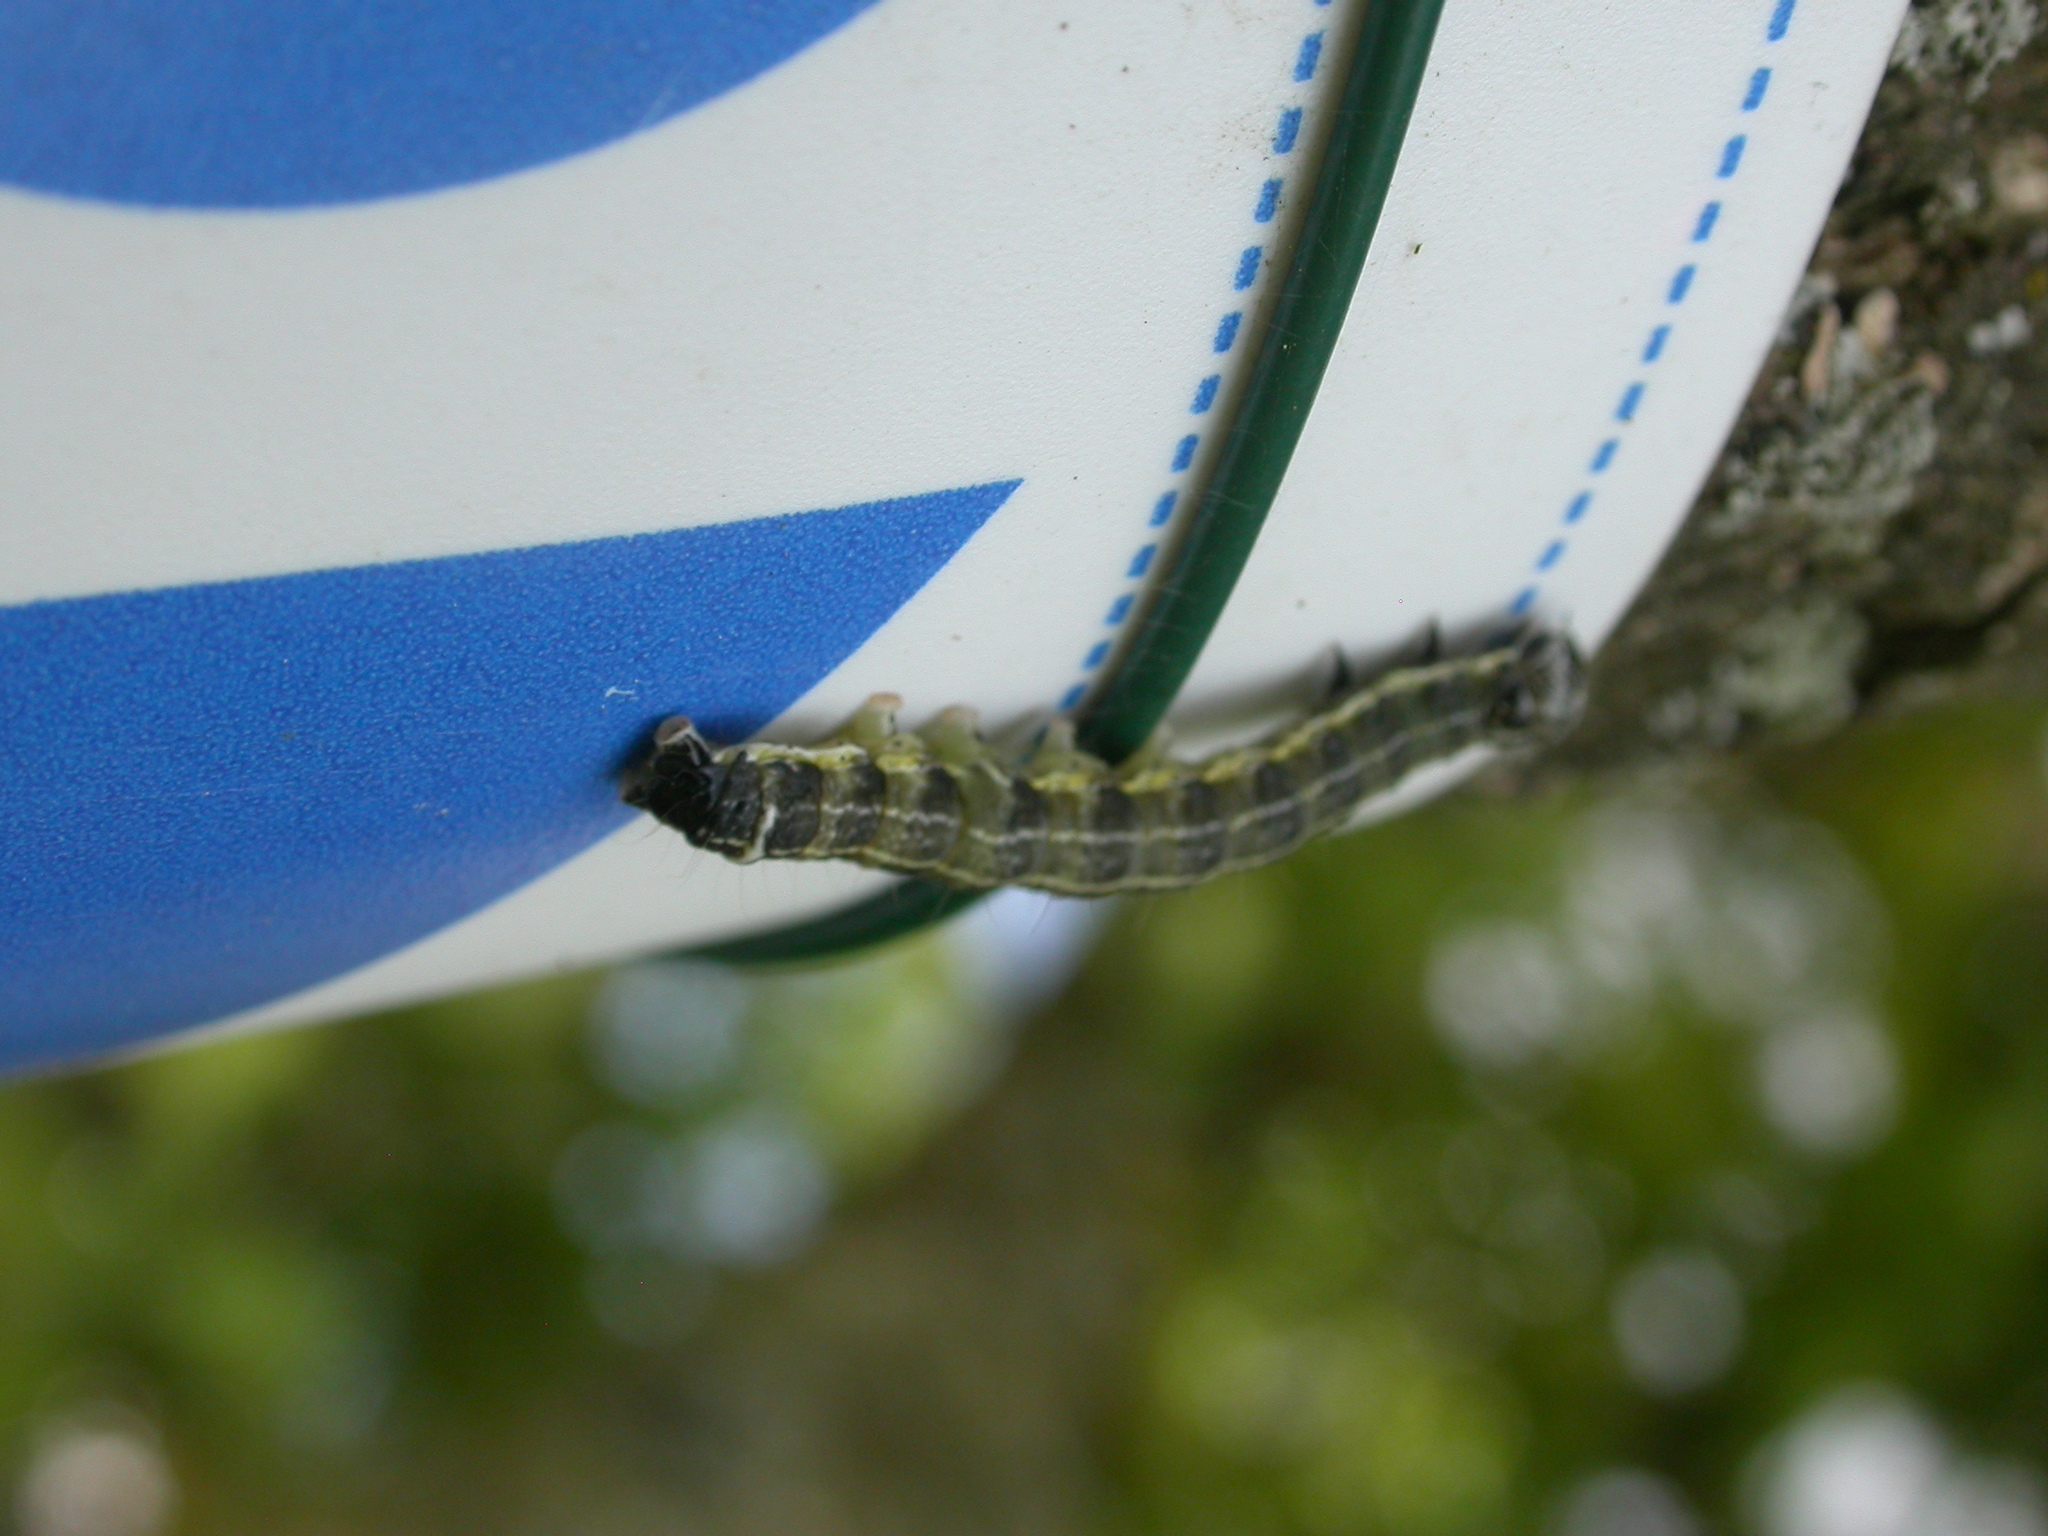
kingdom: Animalia
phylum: Arthropoda
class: Insecta
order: Lepidoptera
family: Noctuidae
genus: Orthosia
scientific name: Orthosia cruda
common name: Small quaker
